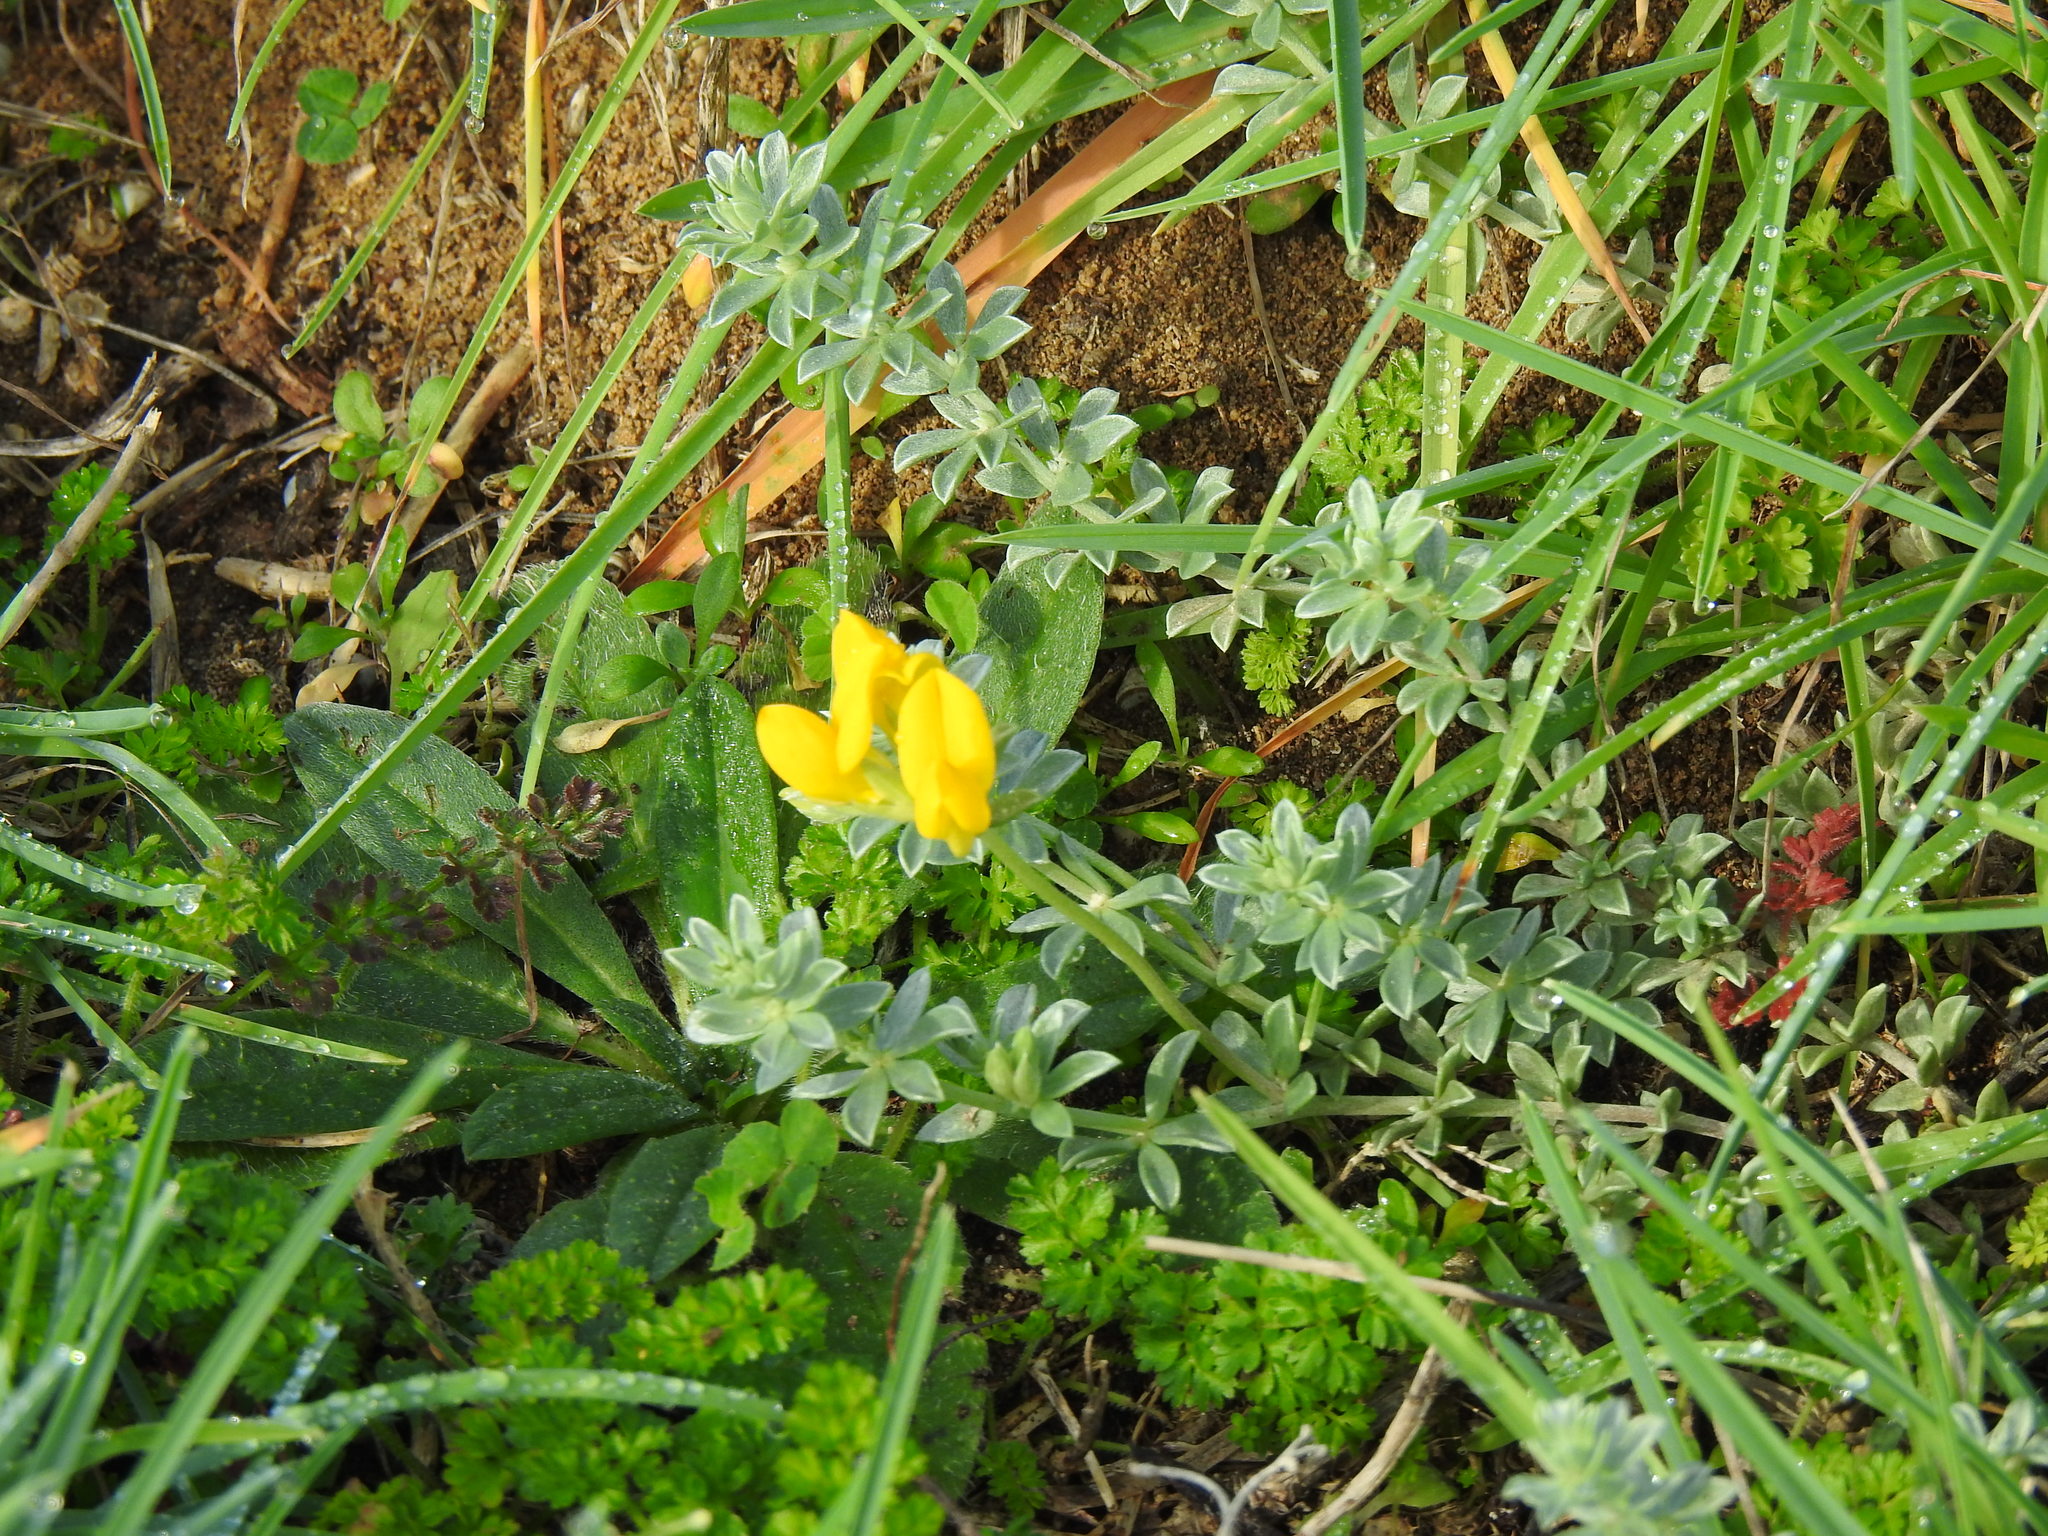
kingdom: Plantae
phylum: Tracheophyta
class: Magnoliopsida
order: Fabales
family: Fabaceae
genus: Lotus
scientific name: Lotus creticus
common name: Cretan bird's-foot trefoil
